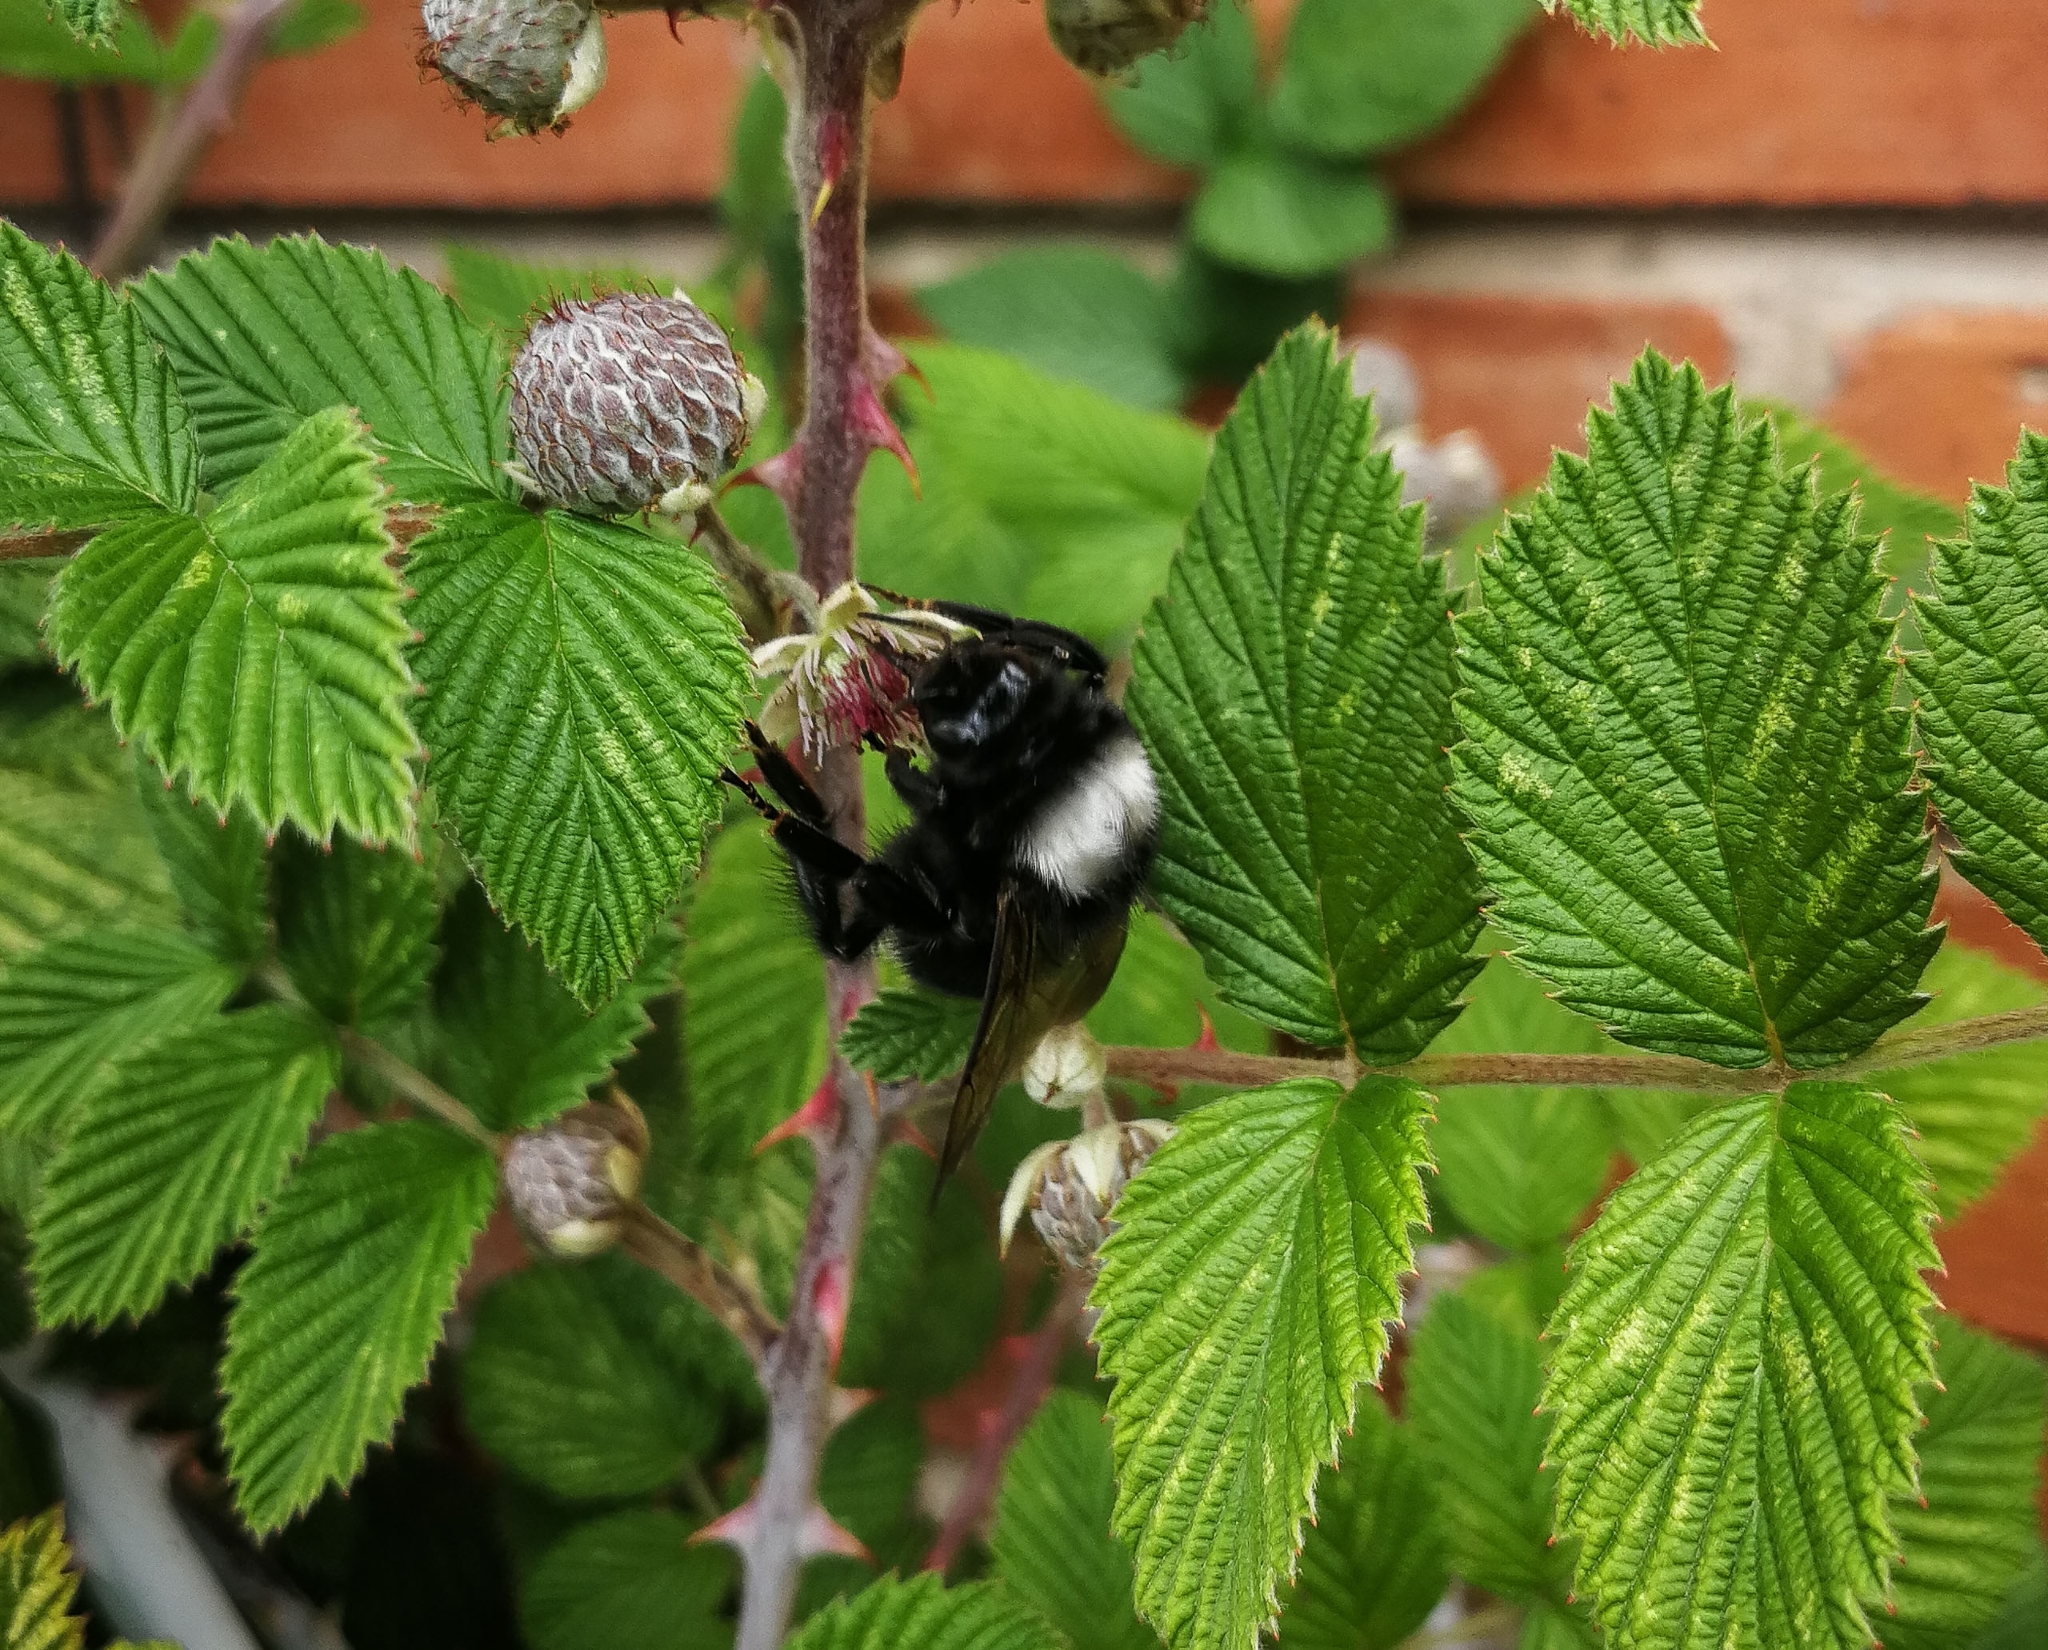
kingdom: Animalia
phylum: Arthropoda
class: Insecta
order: Hymenoptera
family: Apidae
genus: Bombus
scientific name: Bombus funebris
